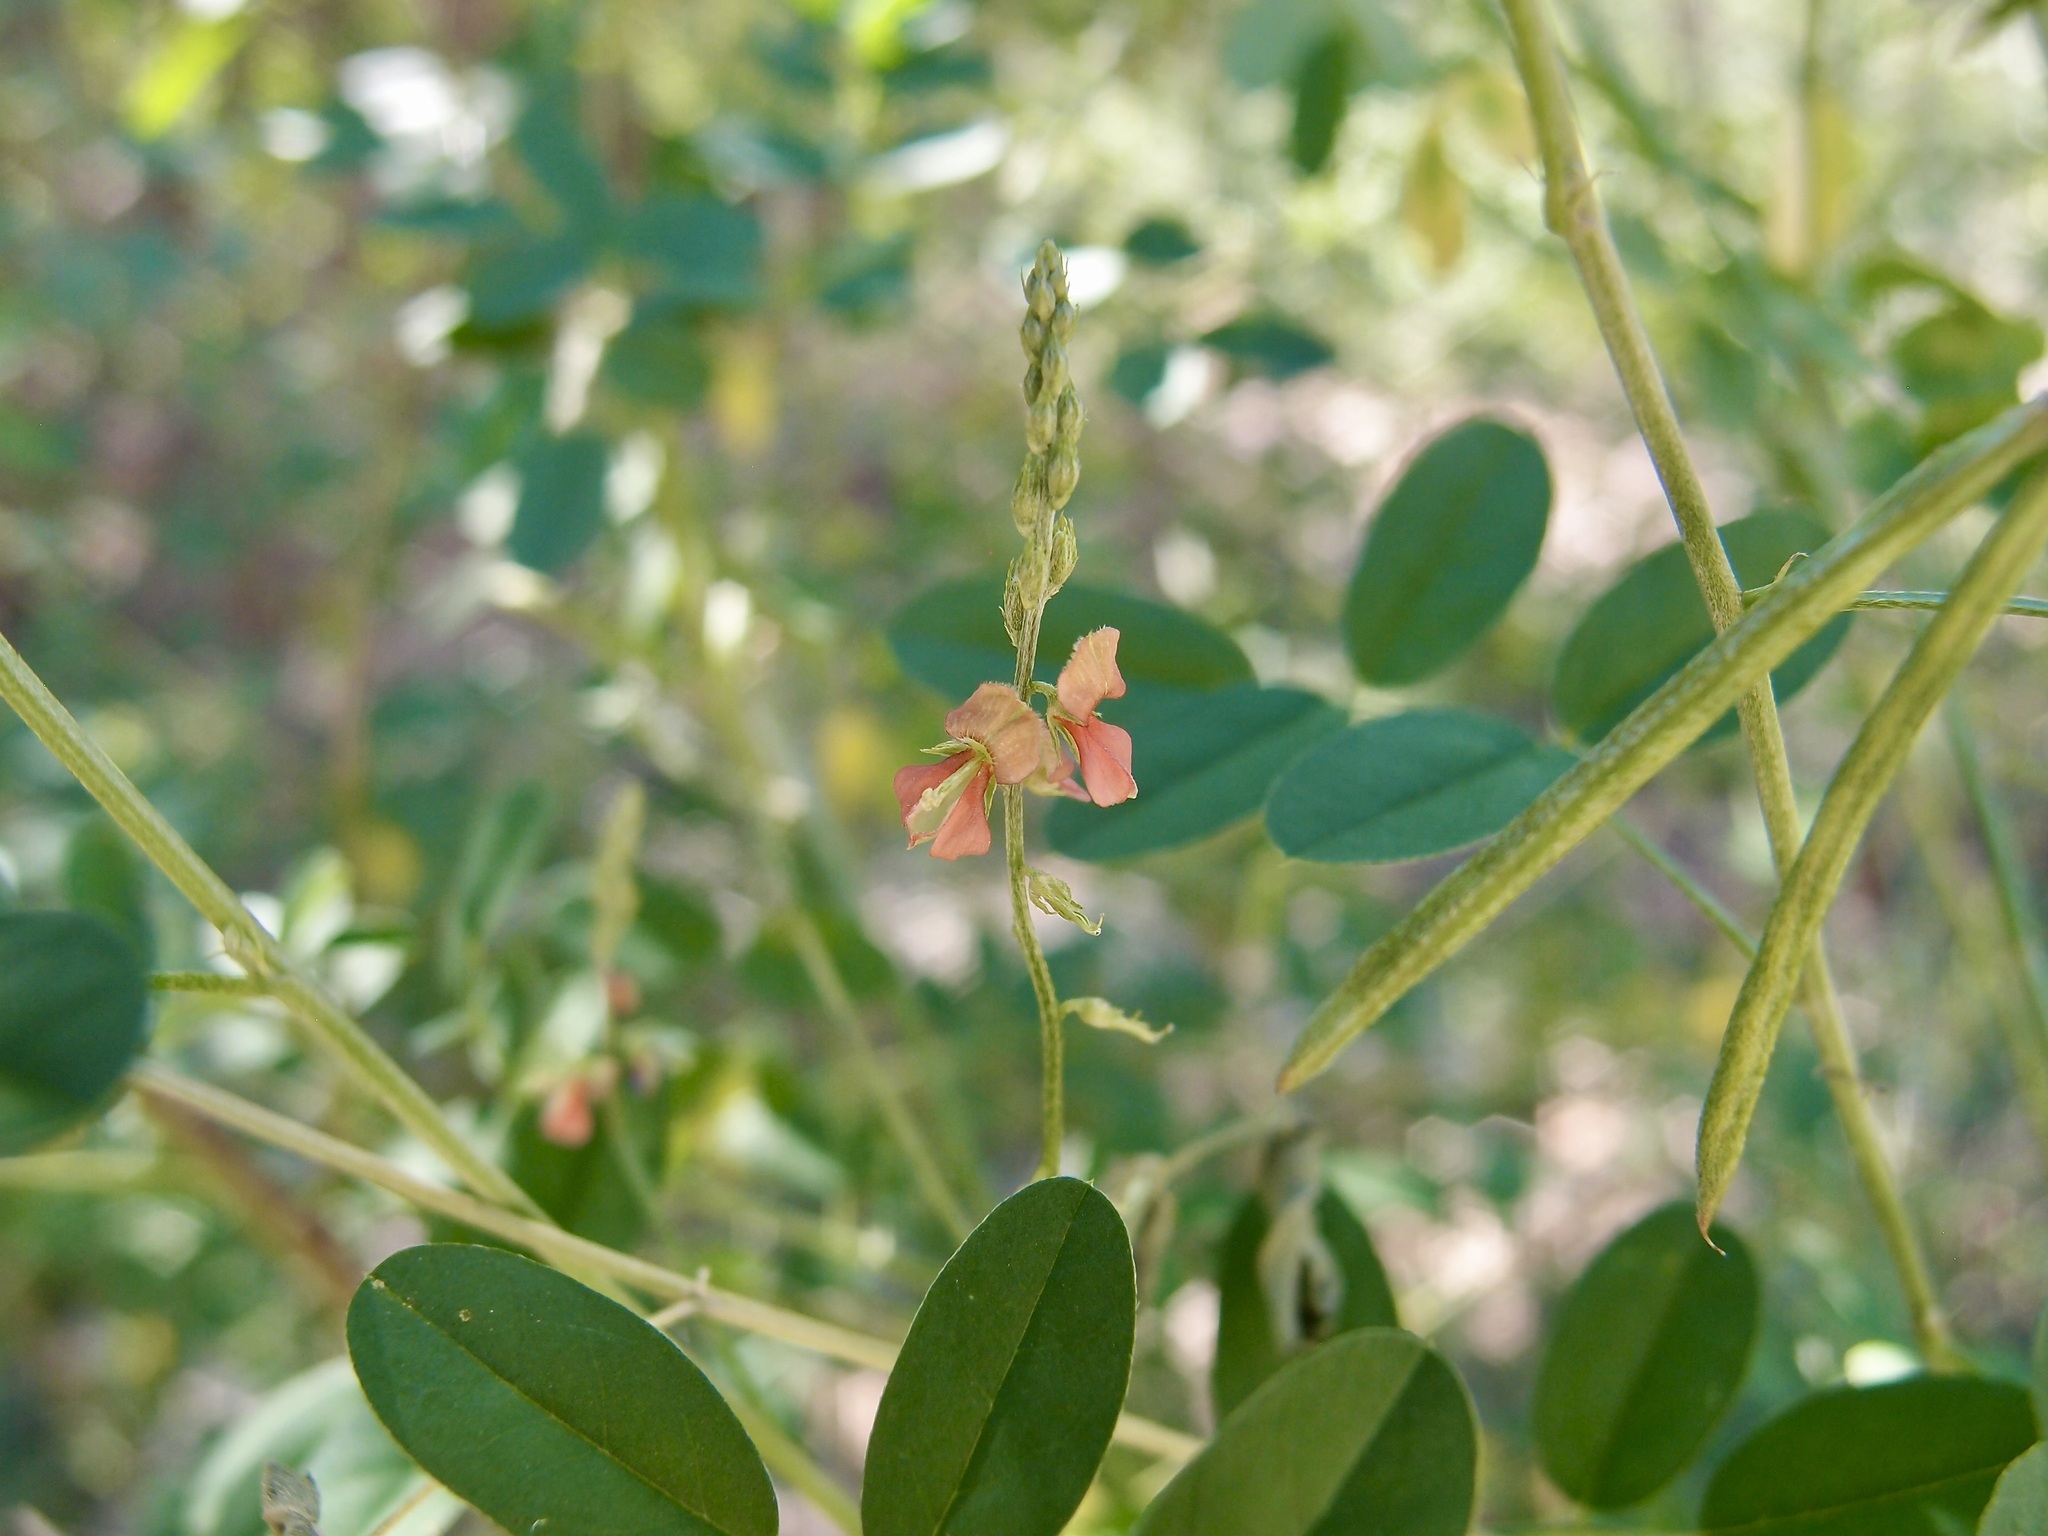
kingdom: Plantae
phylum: Tracheophyta
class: Magnoliopsida
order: Fabales
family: Fabaceae
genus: Indigofera
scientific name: Indigofera subulata
